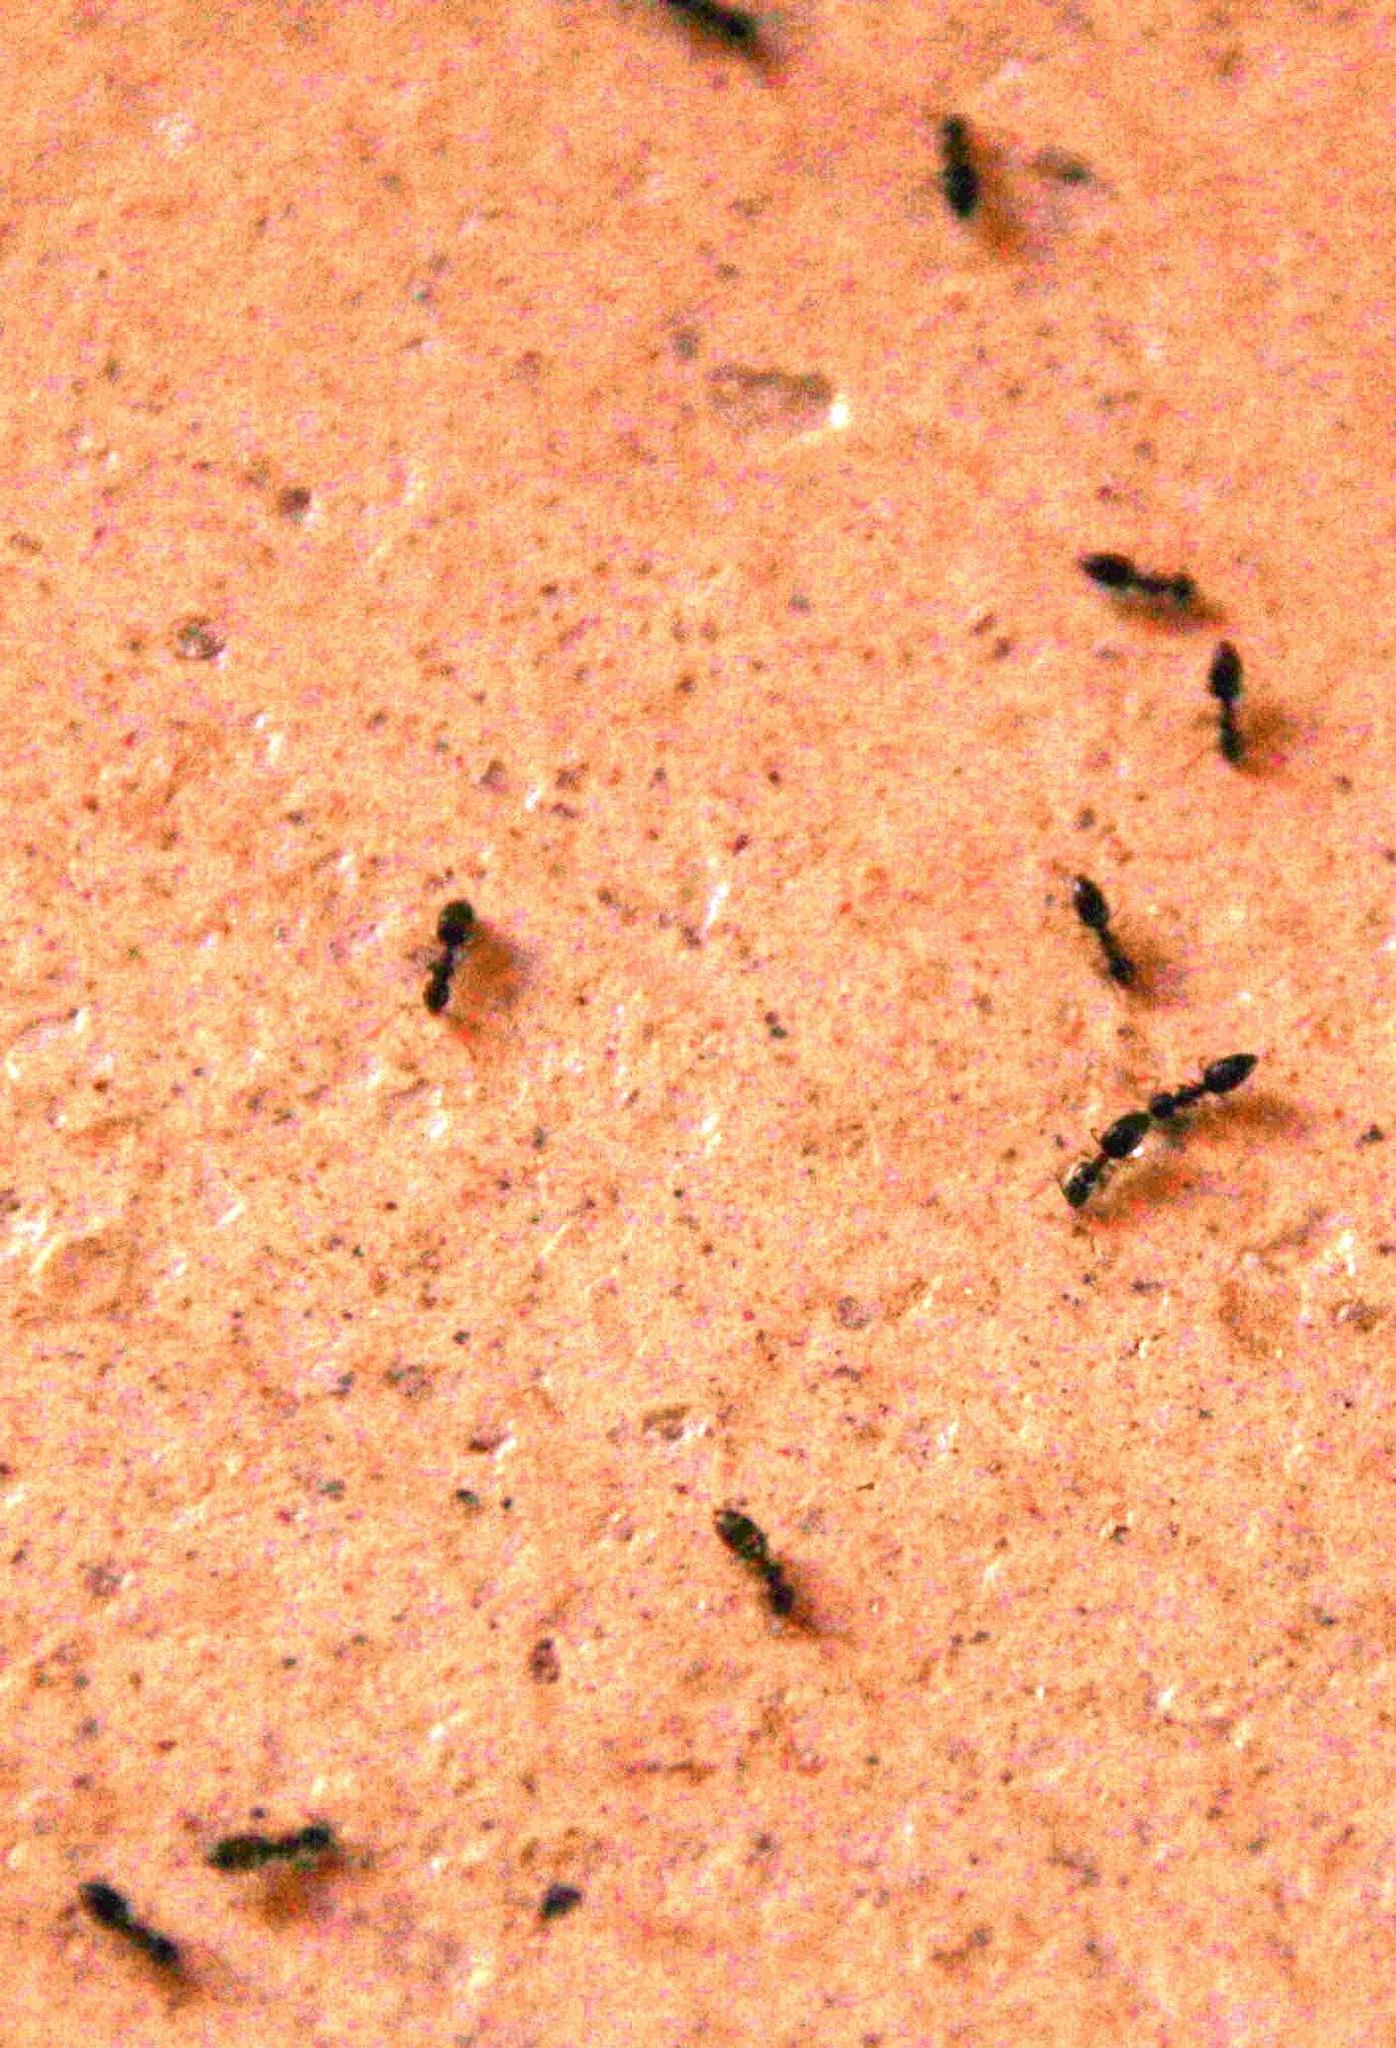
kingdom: Animalia
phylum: Arthropoda
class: Insecta
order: Hymenoptera
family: Formicidae
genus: Tapinoma
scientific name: Tapinoma pallipes
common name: Ant
